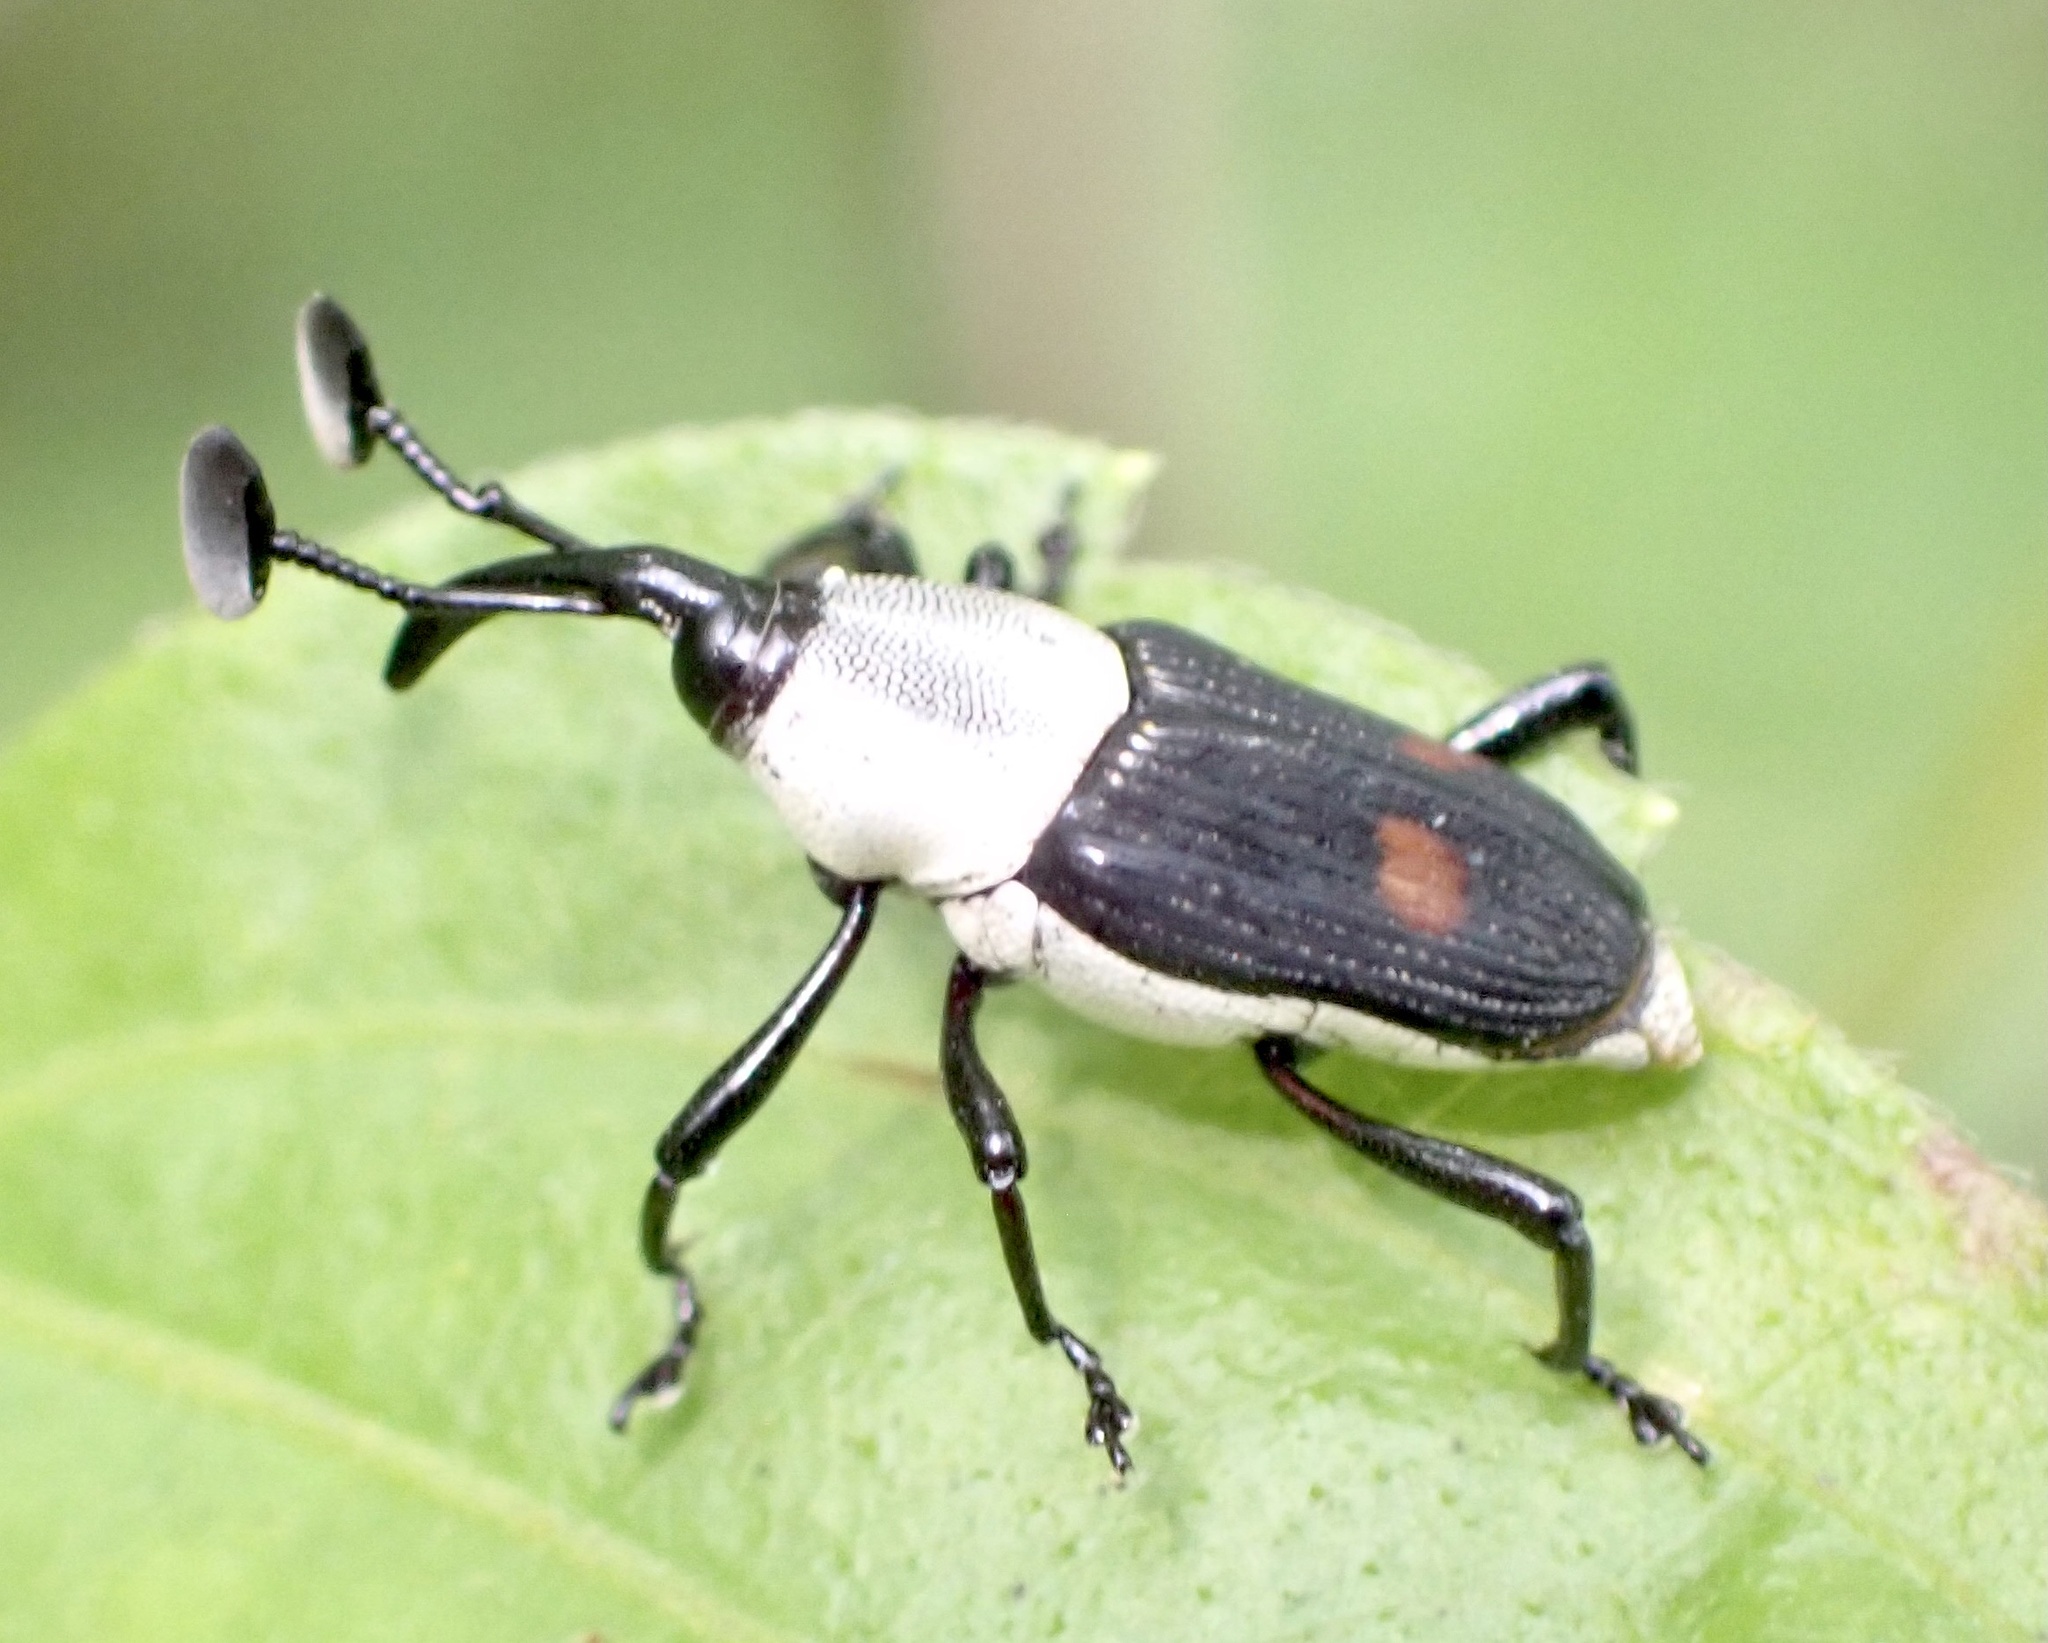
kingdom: Animalia
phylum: Arthropoda
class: Insecta
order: Coleoptera
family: Dryophthoridae
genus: Cercidocerus
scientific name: Cercidocerus albicollis
